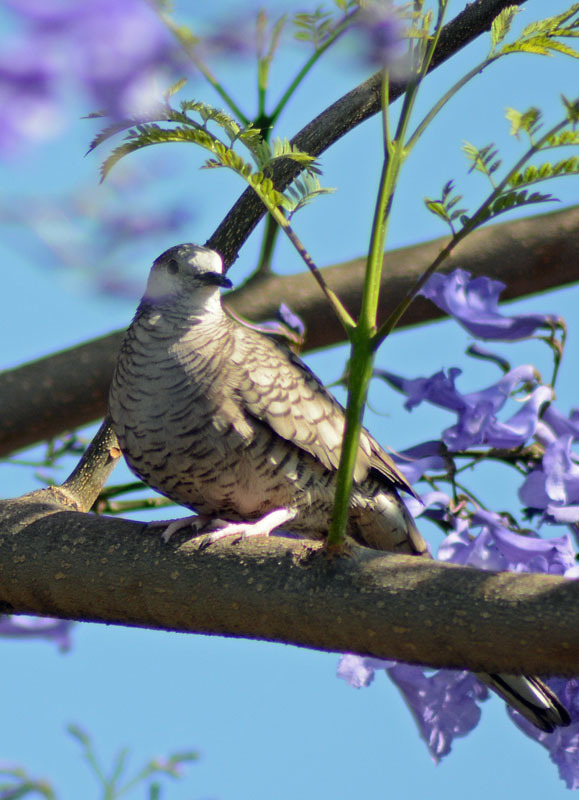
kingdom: Animalia
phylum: Chordata
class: Aves
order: Columbiformes
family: Columbidae
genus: Columbina
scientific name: Columbina inca
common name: Inca dove
